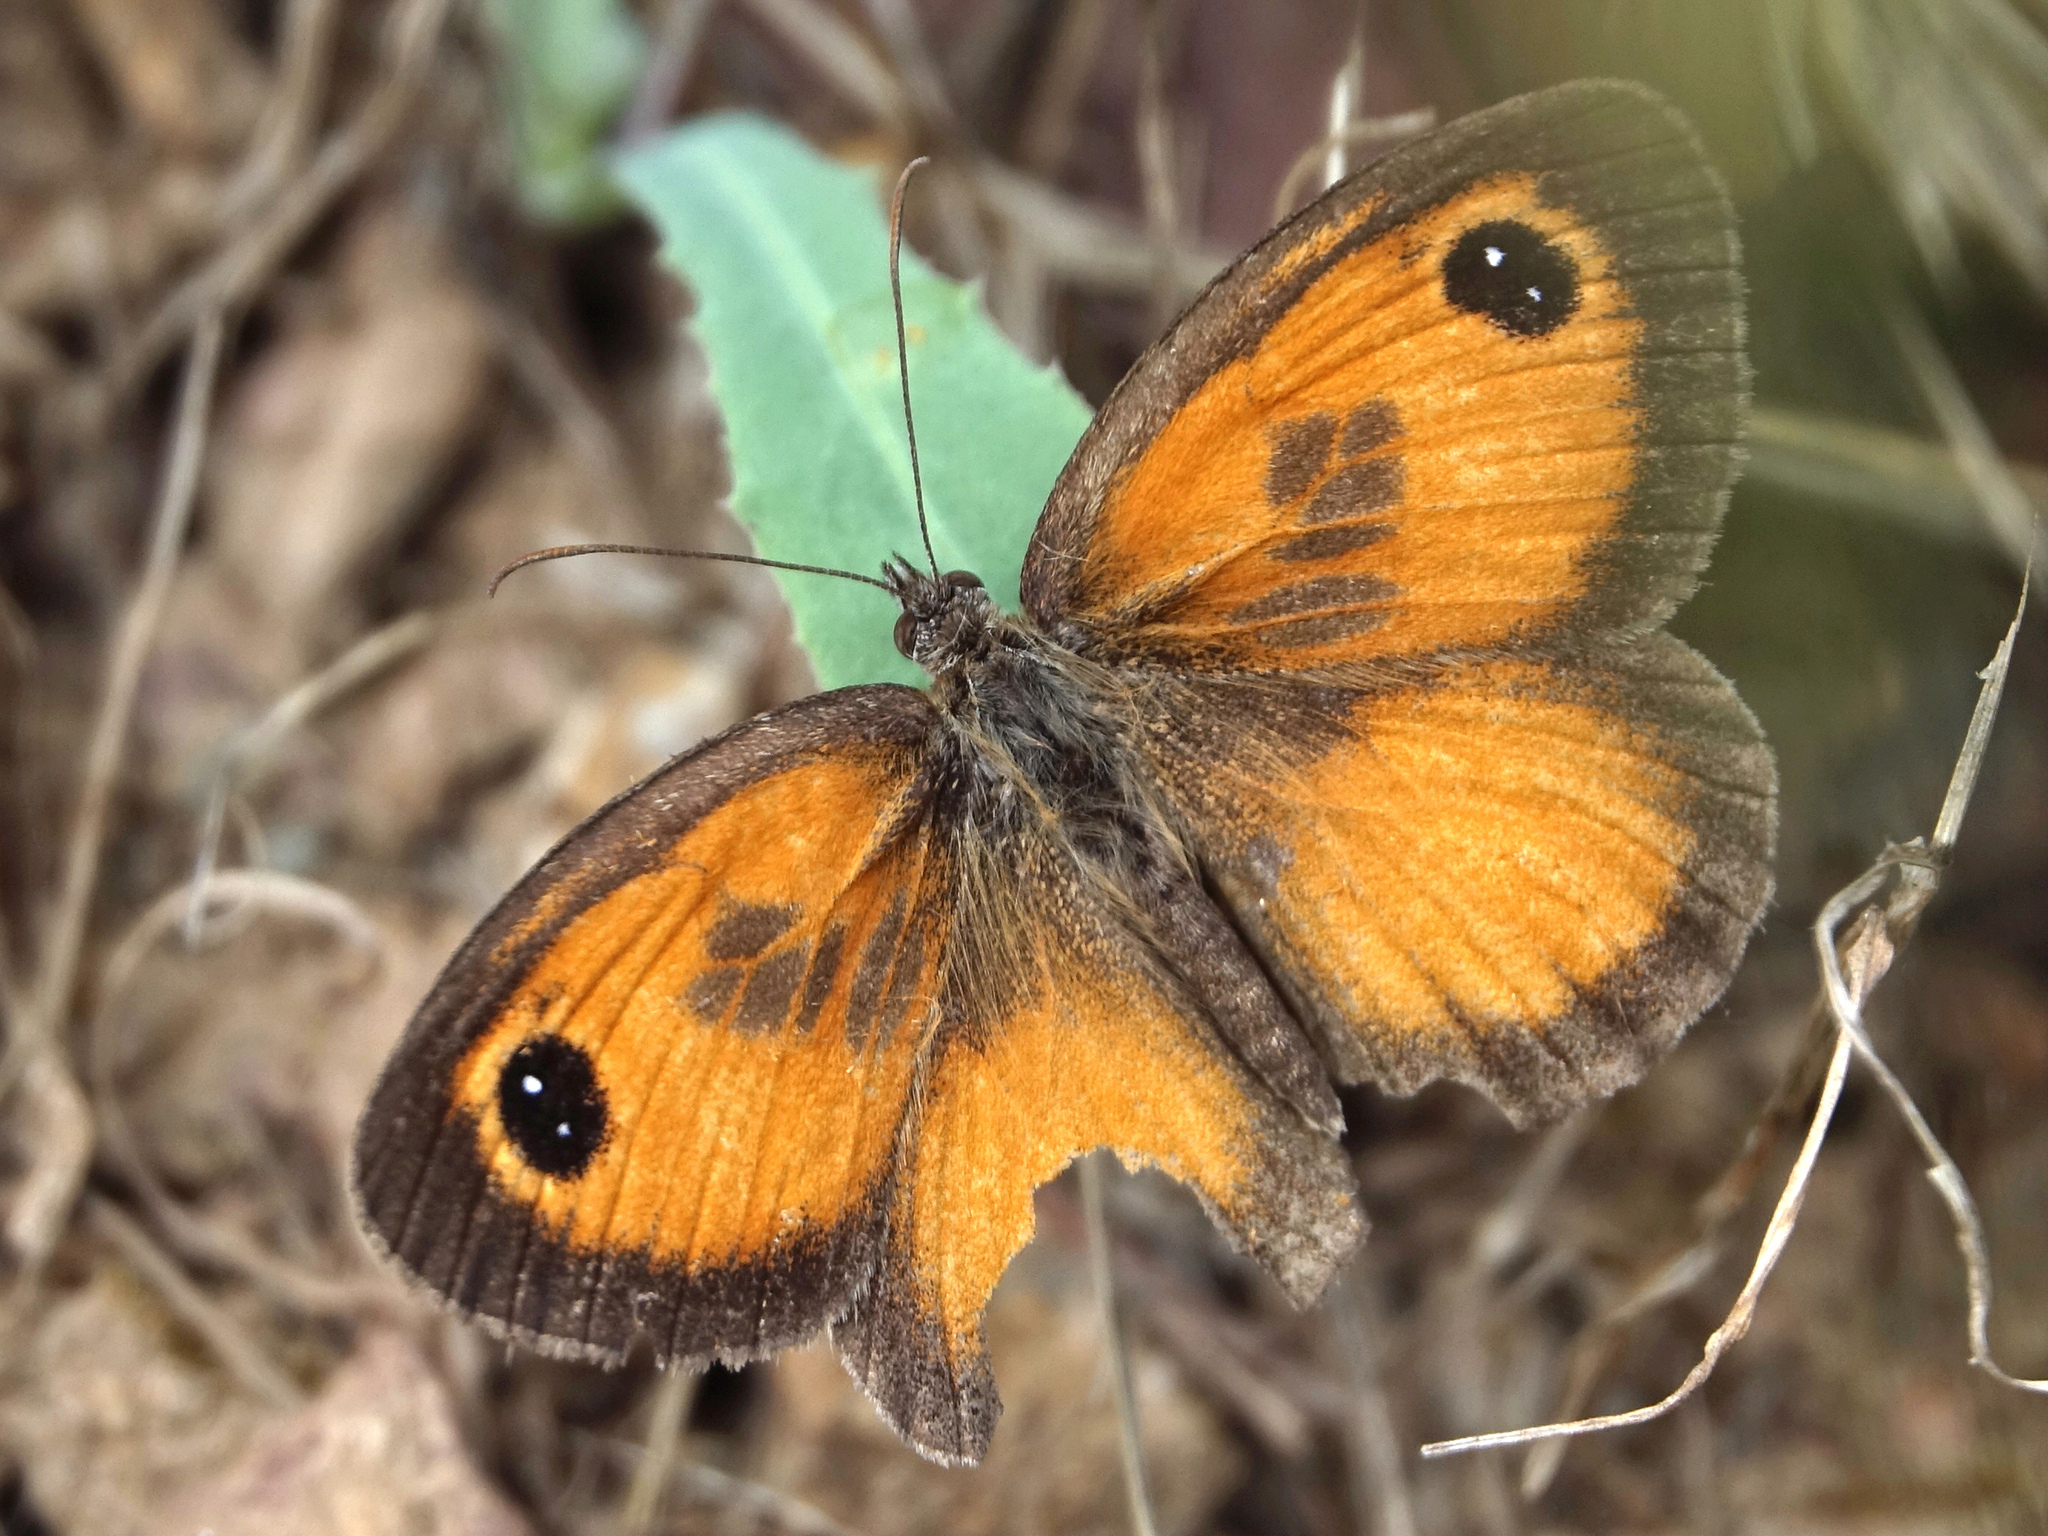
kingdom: Animalia
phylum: Arthropoda
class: Insecta
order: Lepidoptera
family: Nymphalidae
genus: Pyronia
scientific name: Pyronia cecilia
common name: Southern gatekeeper
